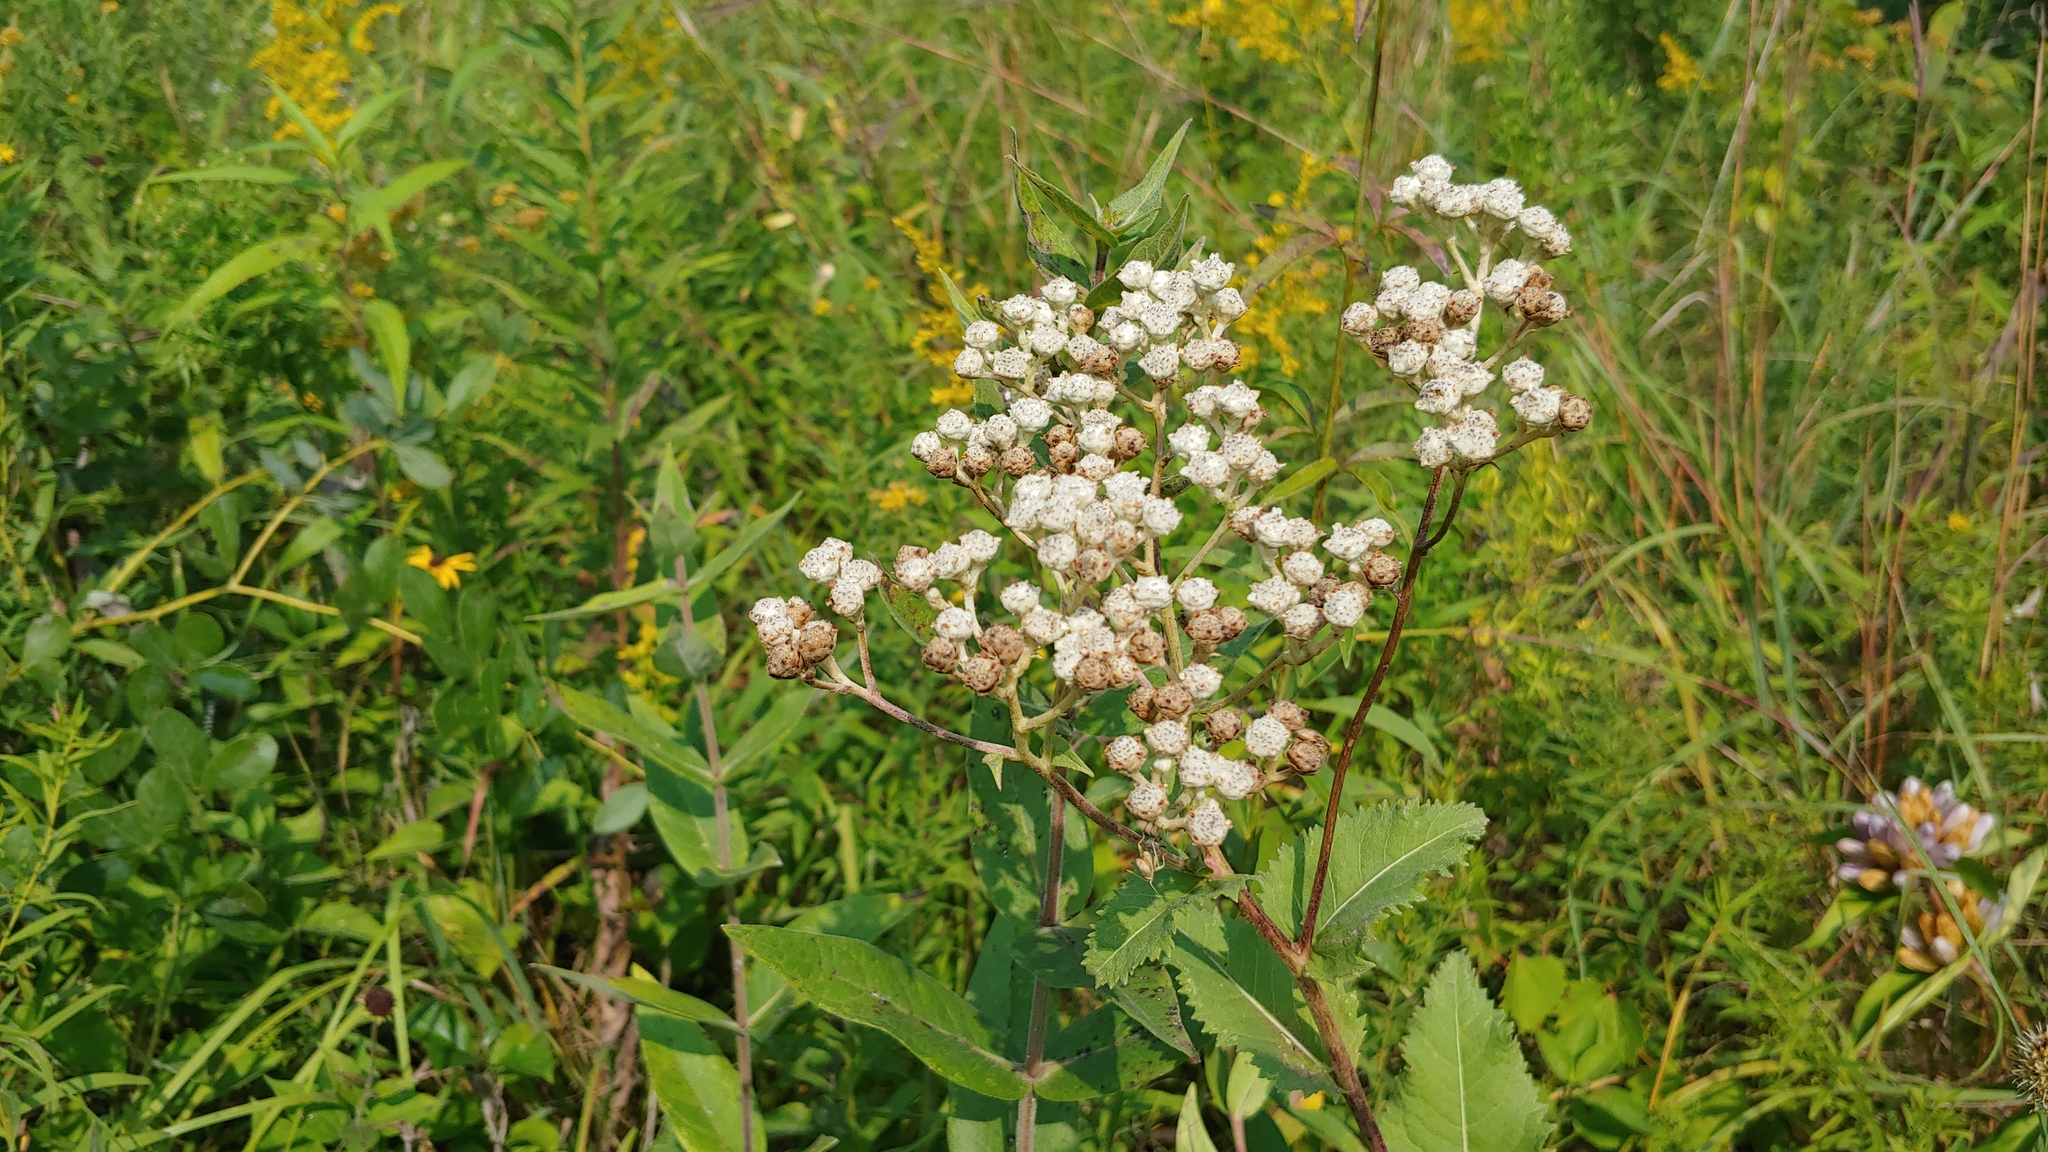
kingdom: Plantae
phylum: Tracheophyta
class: Magnoliopsida
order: Asterales
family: Asteraceae
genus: Parthenium
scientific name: Parthenium integrifolium
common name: American feverfew
